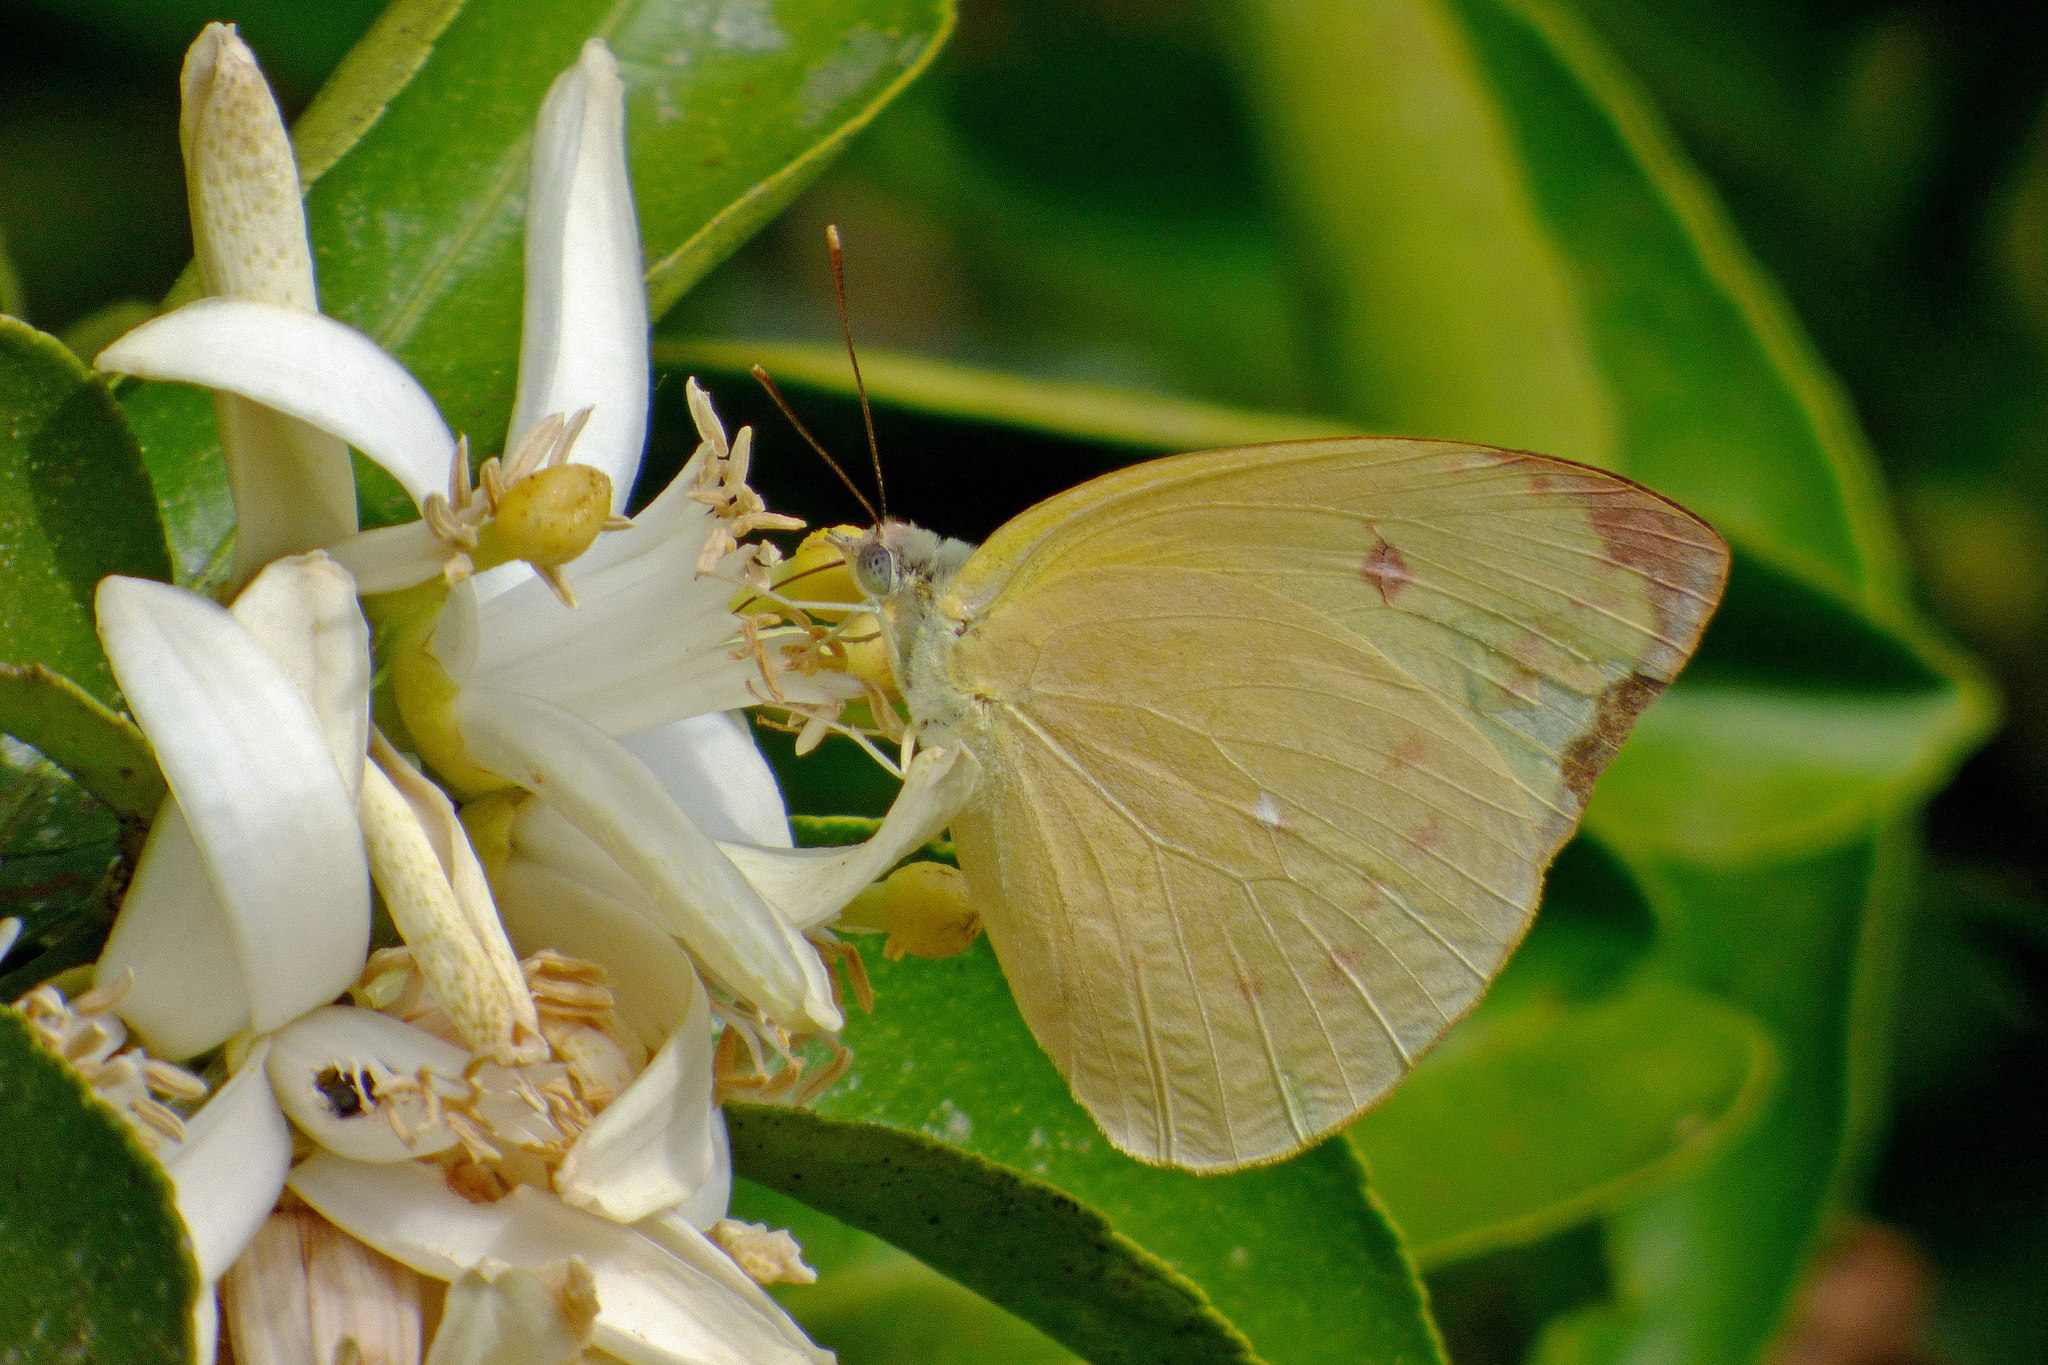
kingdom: Animalia
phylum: Arthropoda
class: Insecta
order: Lepidoptera
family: Pieridae
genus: Aphrissa
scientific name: Aphrissa statira
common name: Statira sulphur
